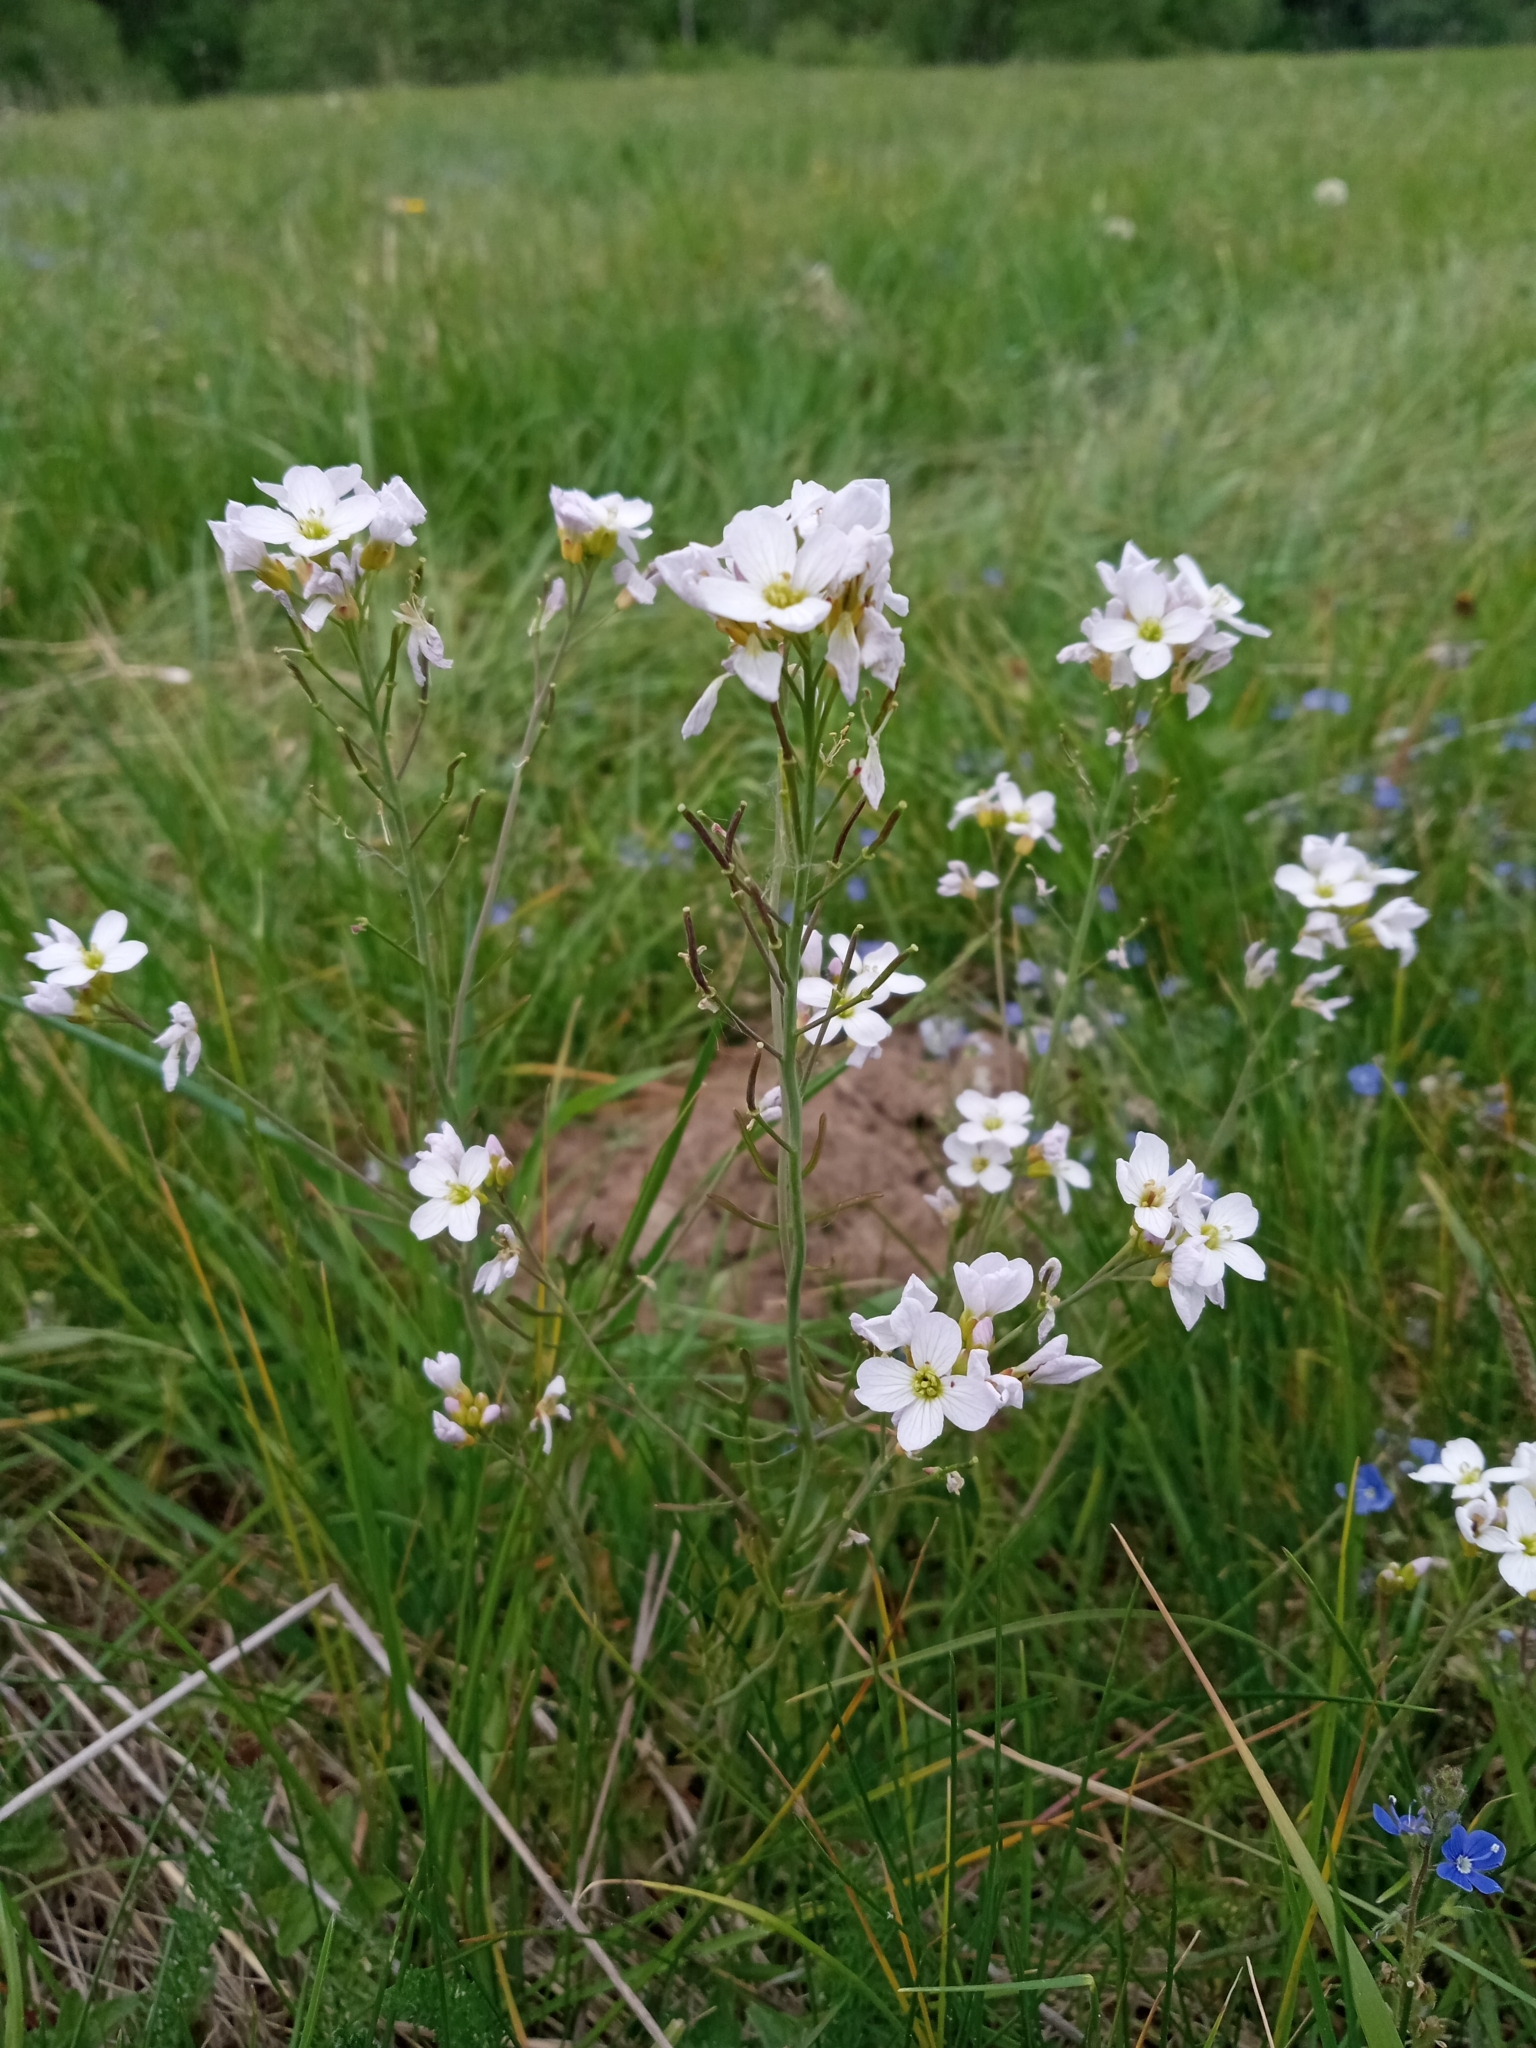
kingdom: Plantae
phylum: Tracheophyta
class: Magnoliopsida
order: Brassicales
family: Brassicaceae
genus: Cardamine
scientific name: Cardamine pratensis
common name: Cuckoo flower
